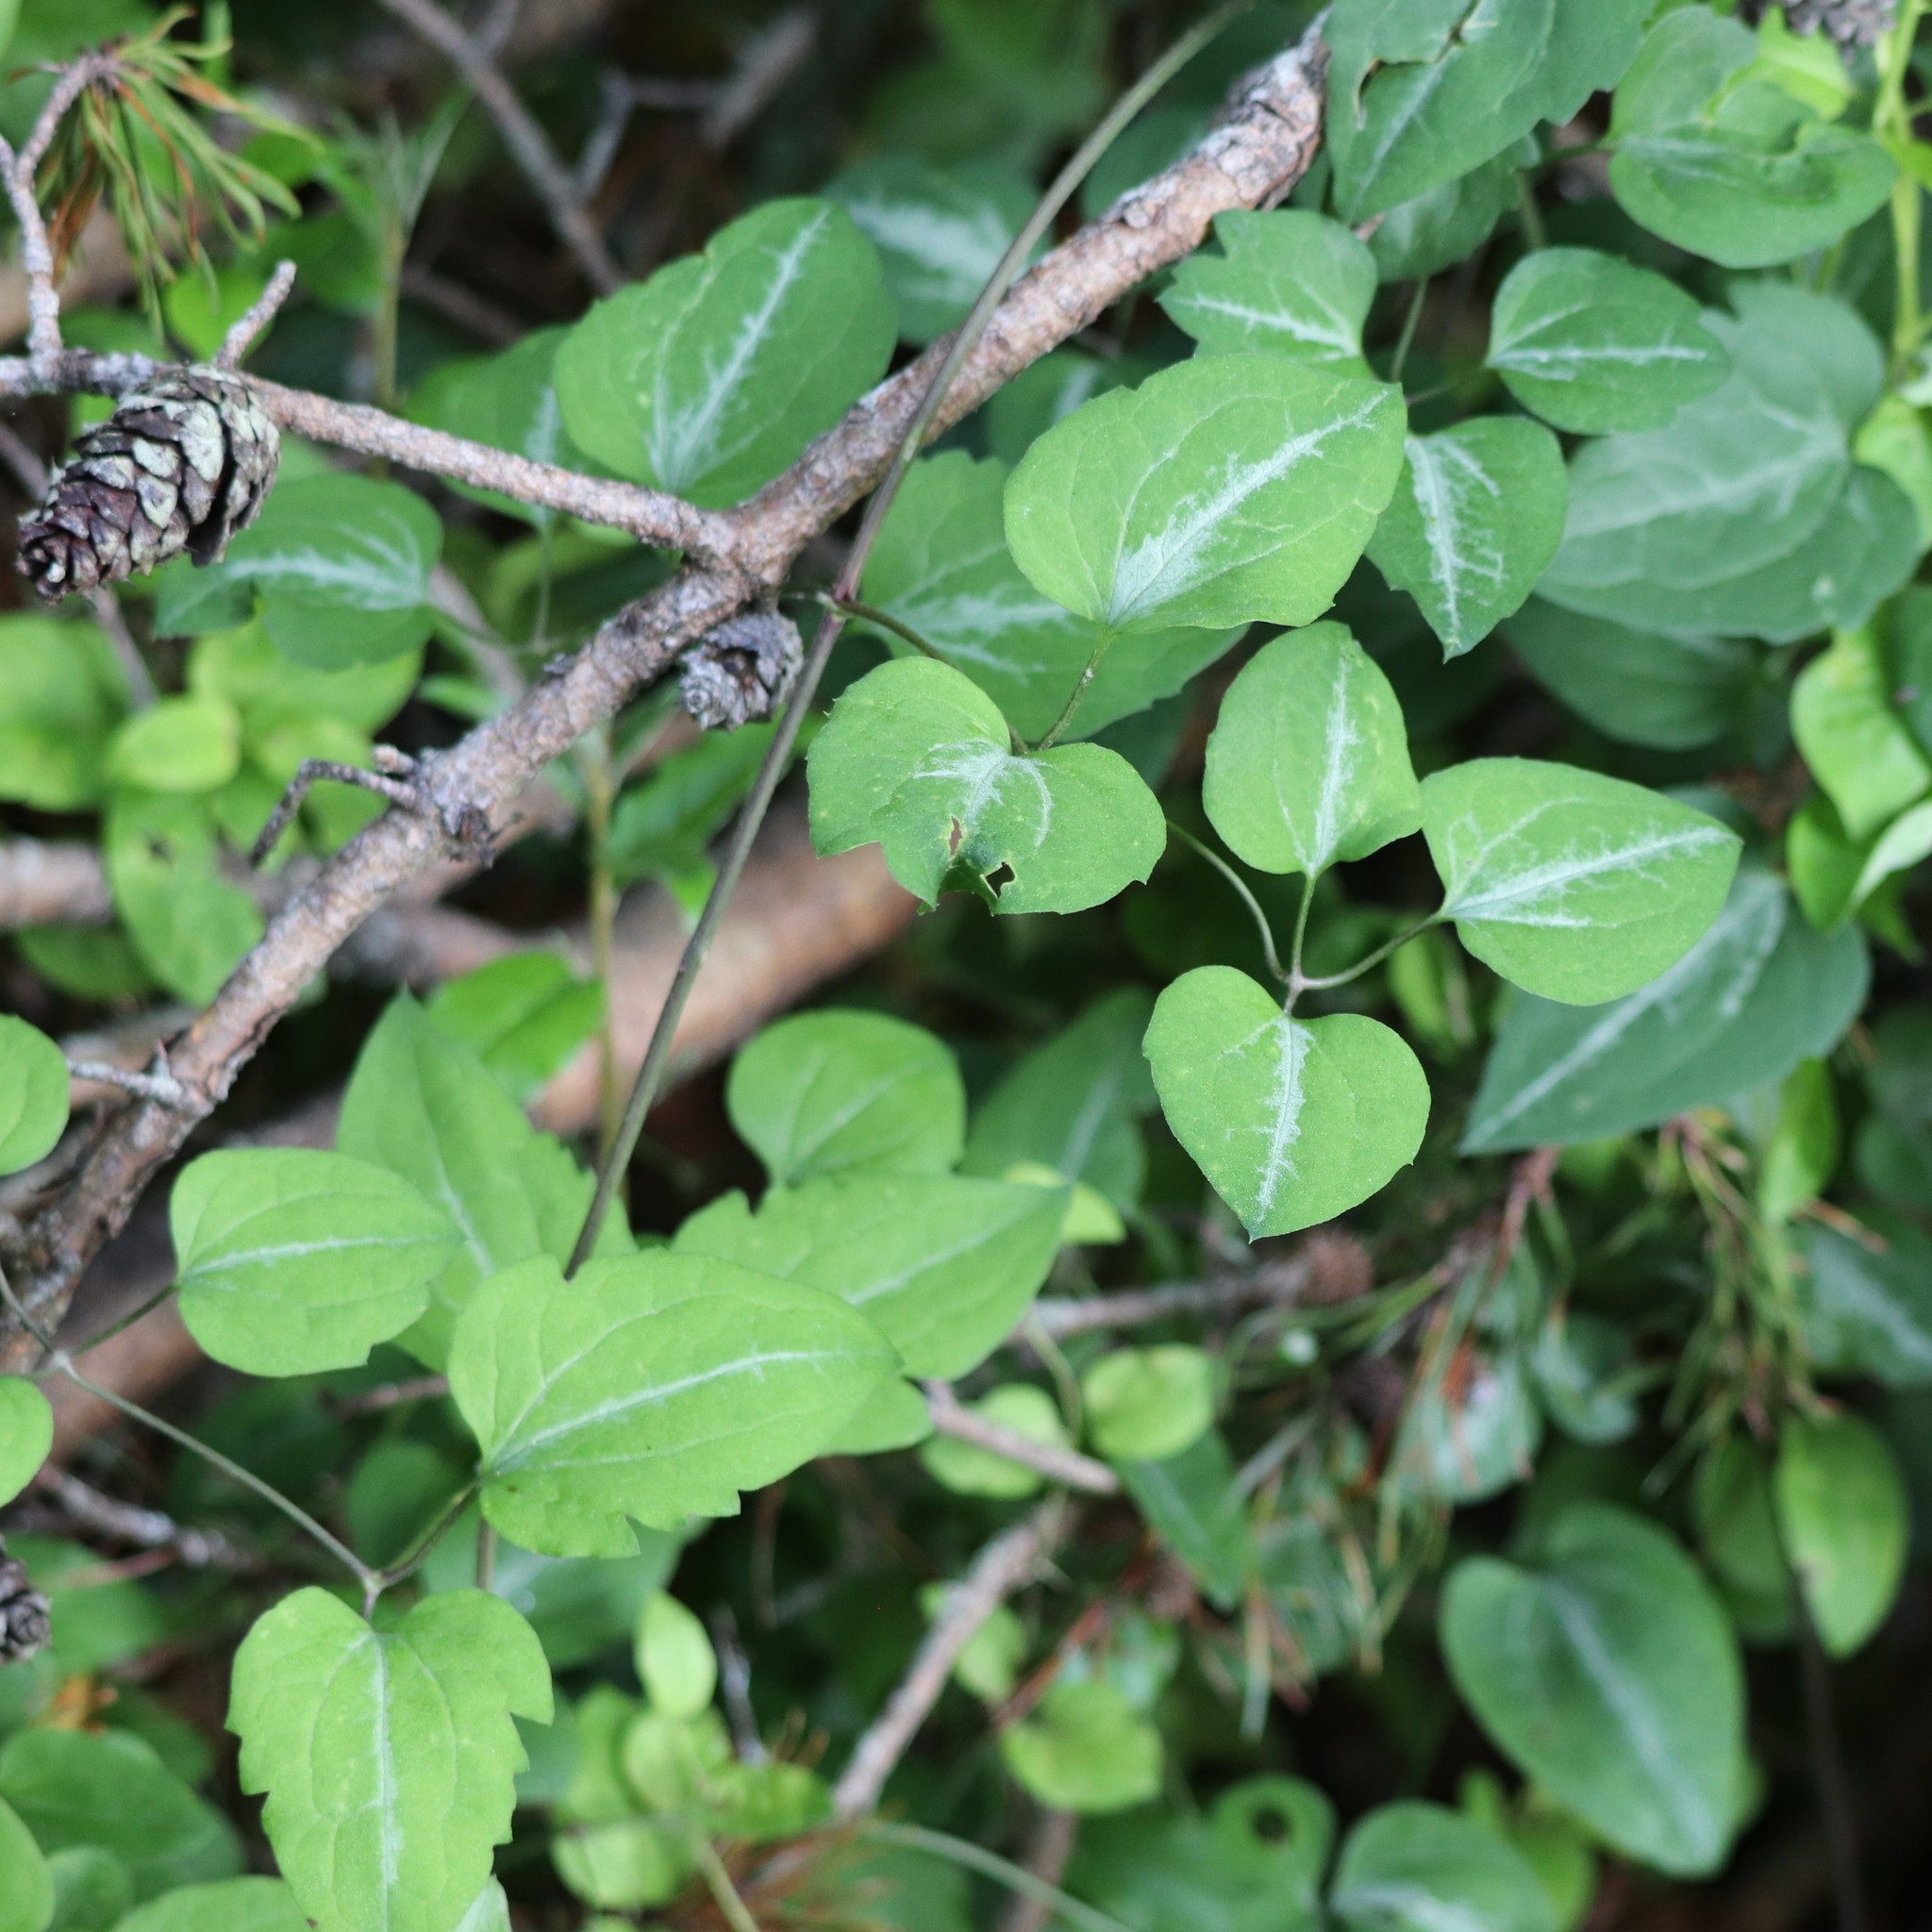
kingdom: Plantae
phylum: Tracheophyta
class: Magnoliopsida
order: Ranunculales
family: Ranunculaceae
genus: Clematis
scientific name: Clematis terniflora
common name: Sweet autumn clematis
